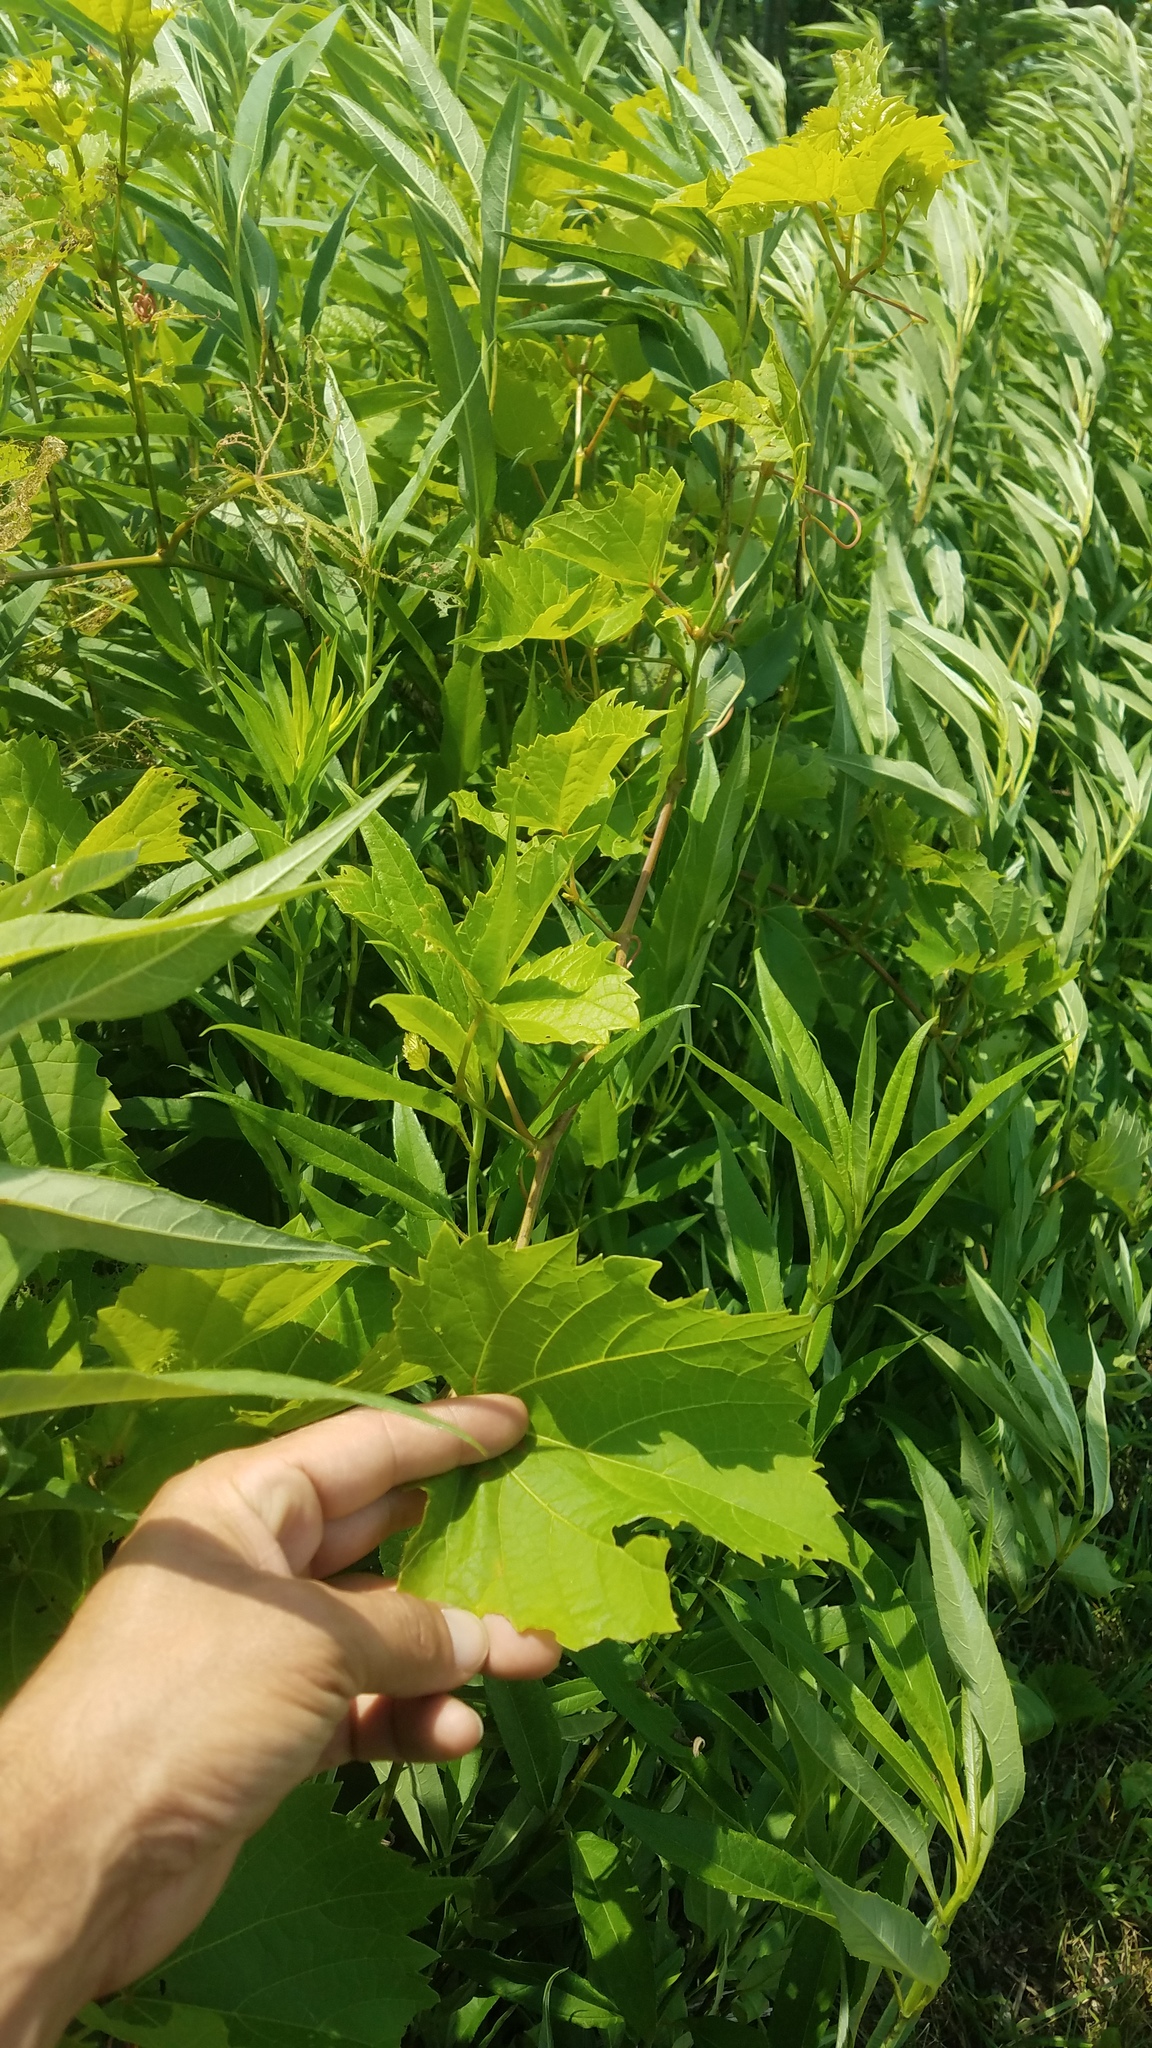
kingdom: Plantae
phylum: Tracheophyta
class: Magnoliopsida
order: Vitales
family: Vitaceae
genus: Vitis
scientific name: Vitis riparia
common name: Frost grape
